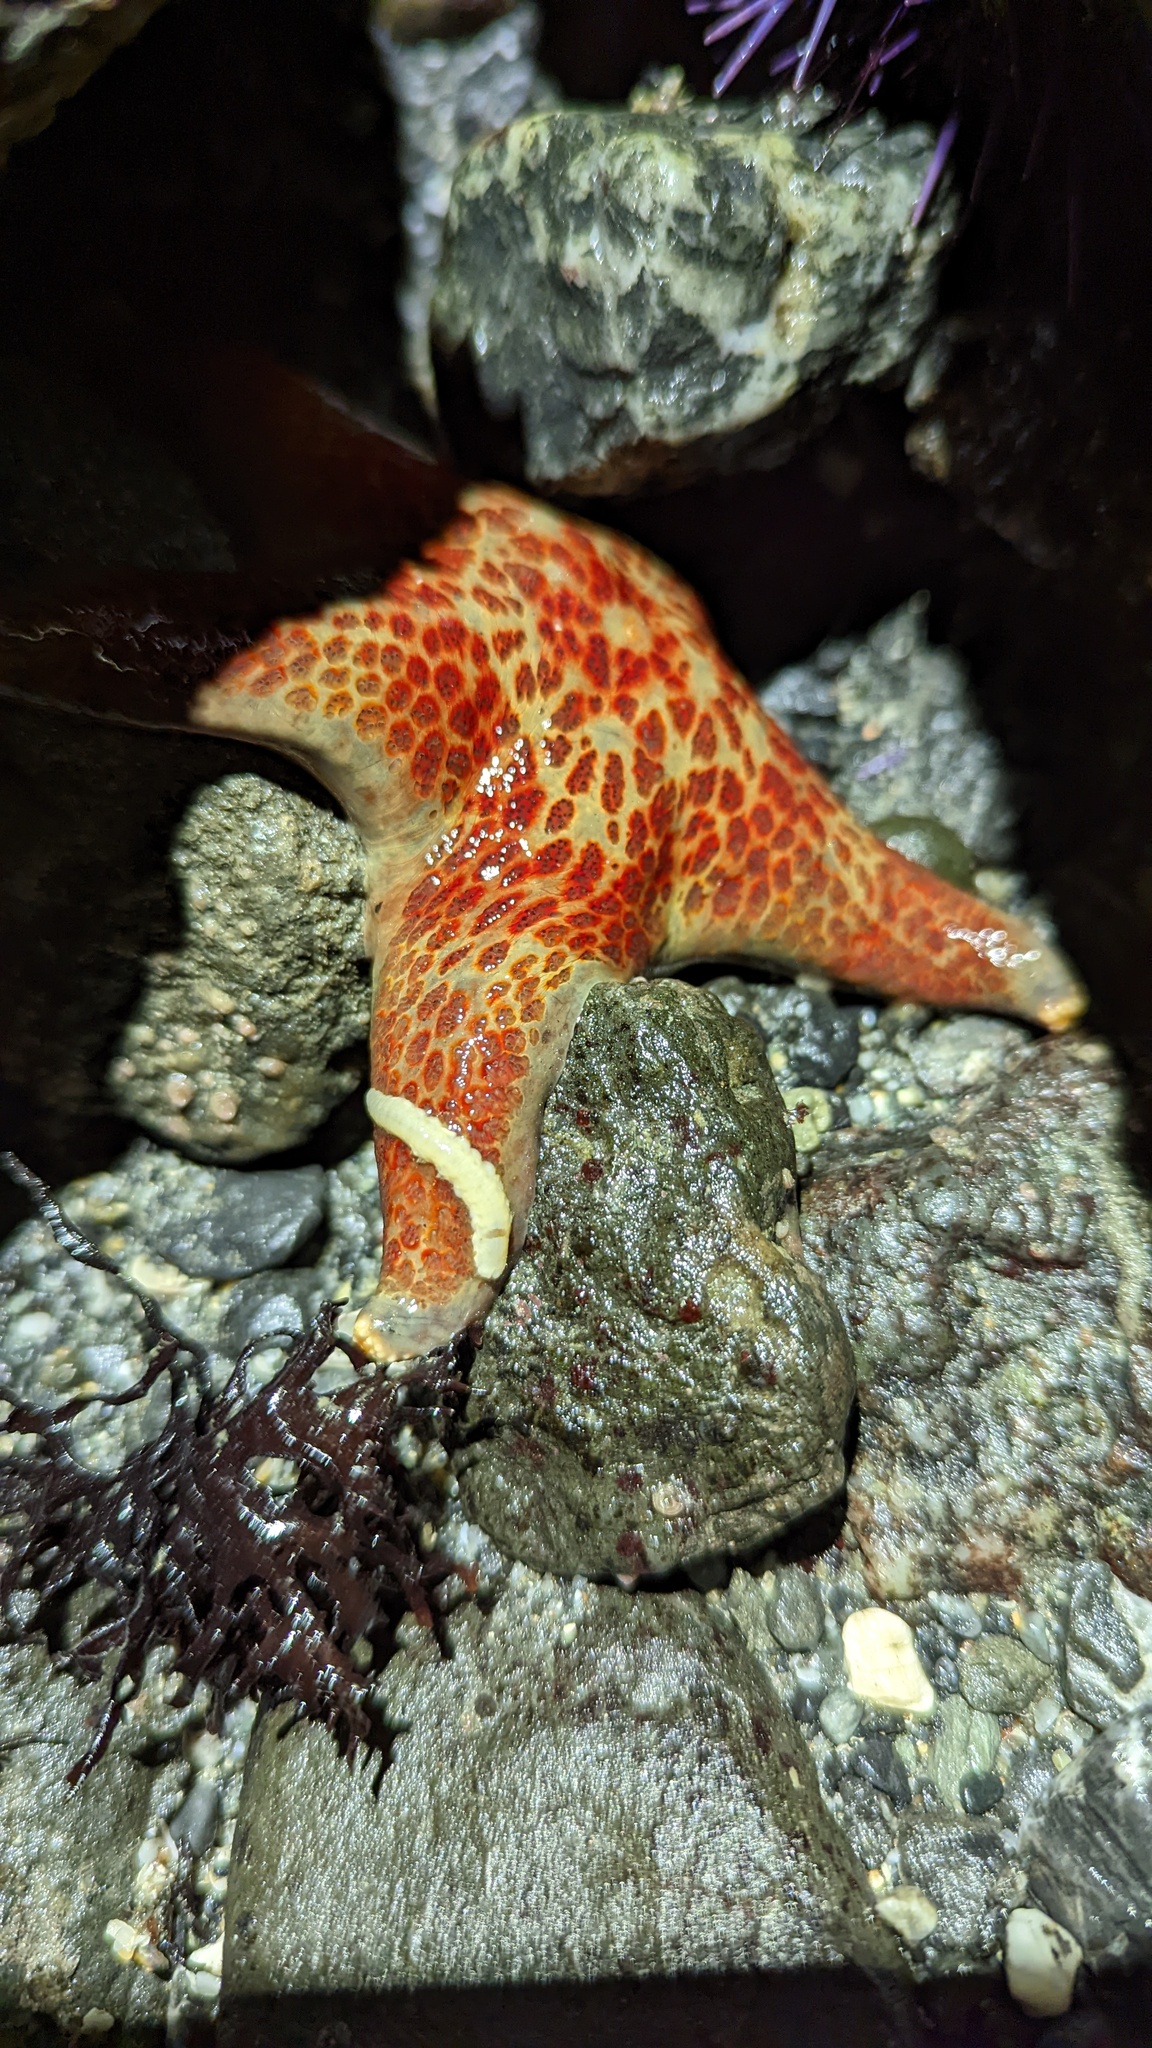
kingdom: Animalia
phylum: Echinodermata
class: Asteroidea
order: Valvatida
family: Asteropseidae
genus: Dermasterias
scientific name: Dermasterias imbricata
